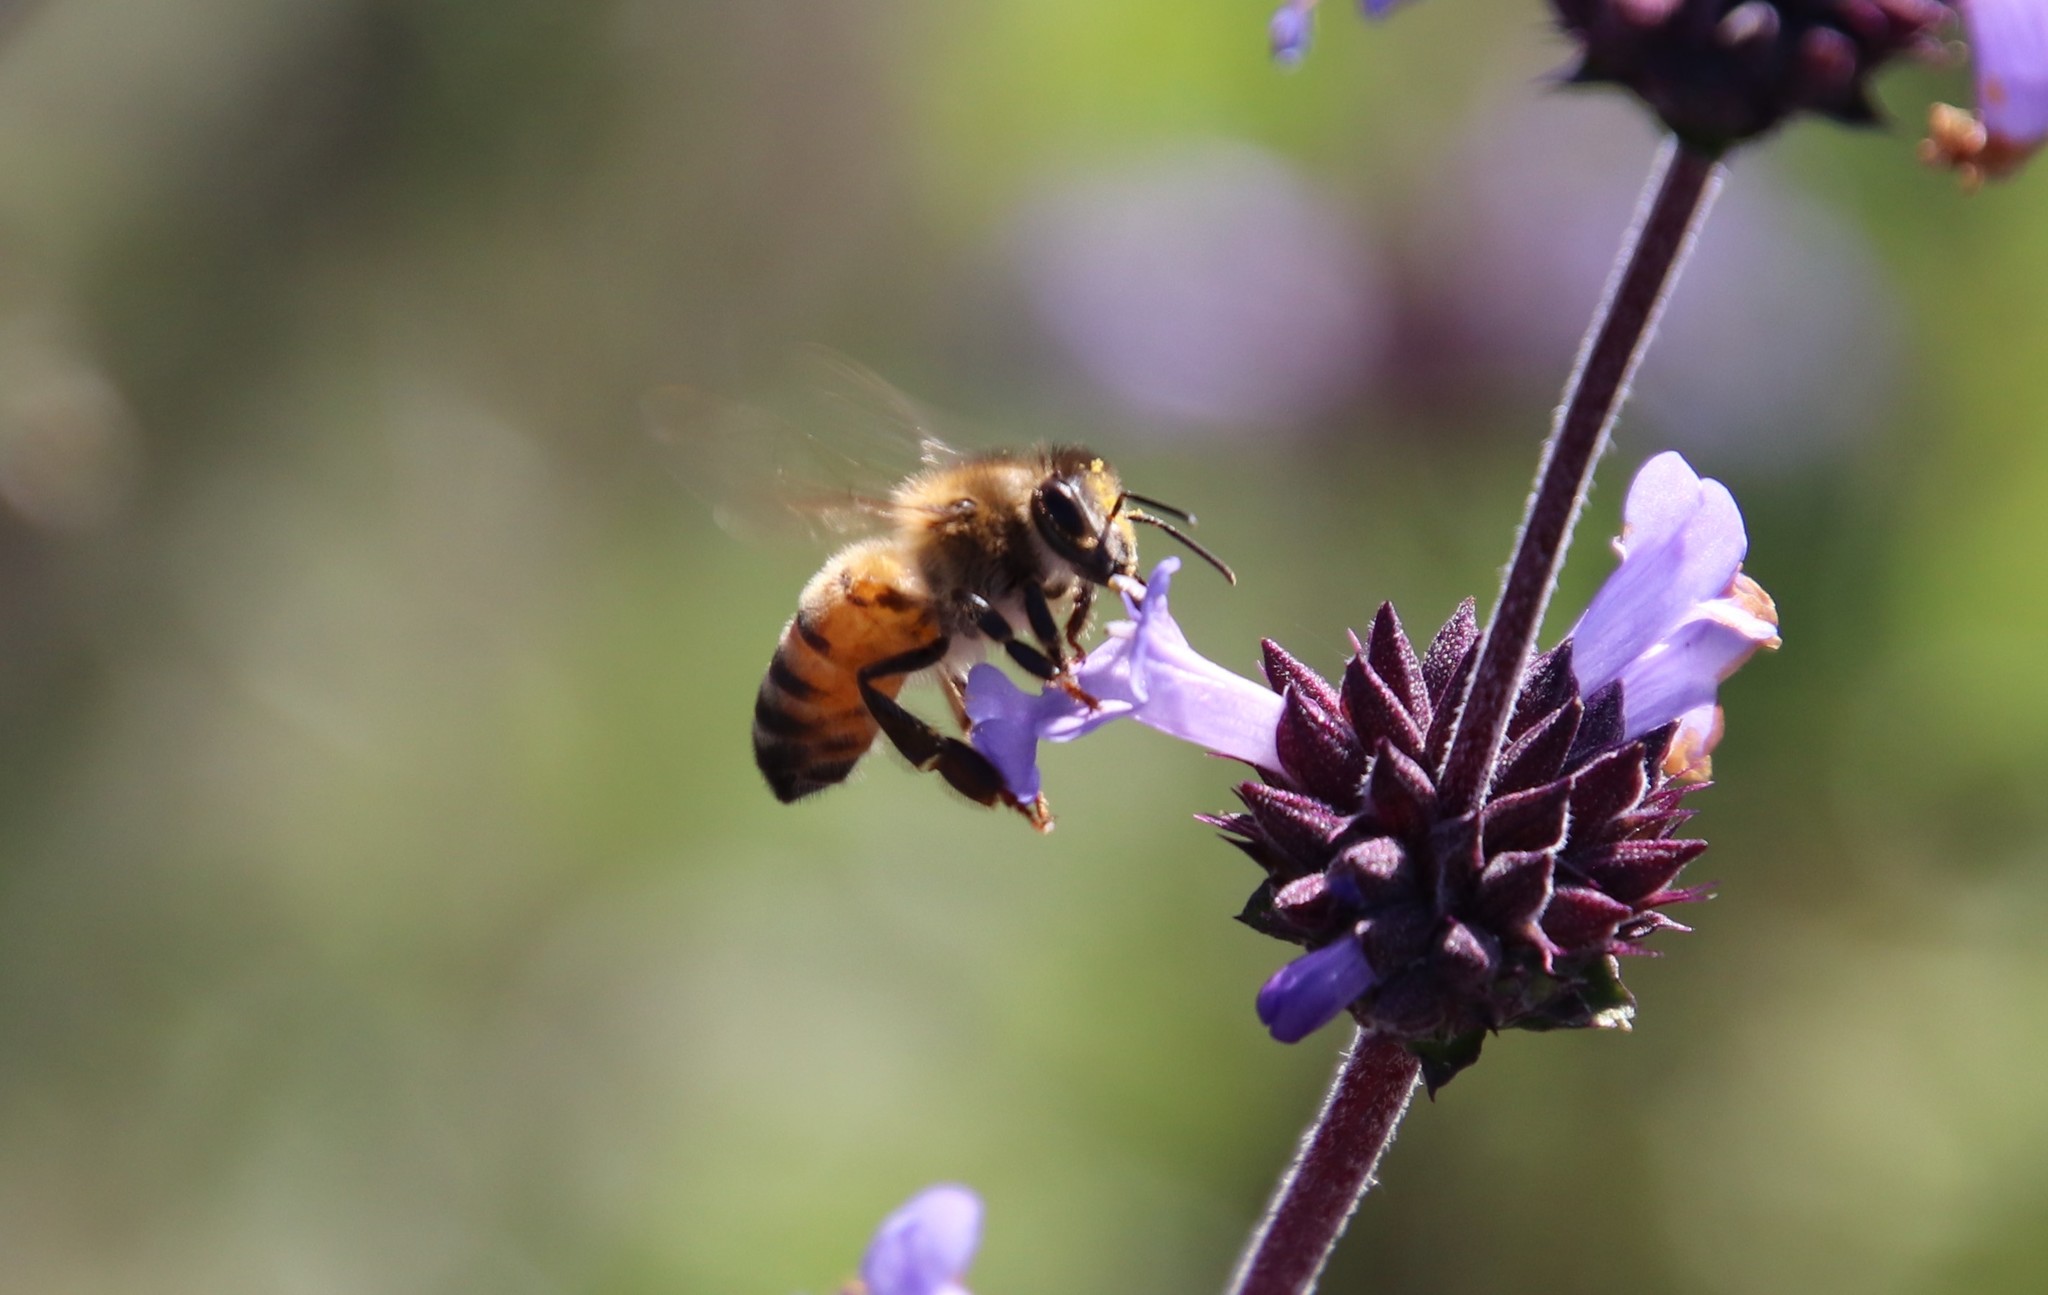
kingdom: Animalia
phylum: Arthropoda
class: Insecta
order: Hymenoptera
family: Apidae
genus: Apis
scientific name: Apis mellifera
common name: Honey bee
